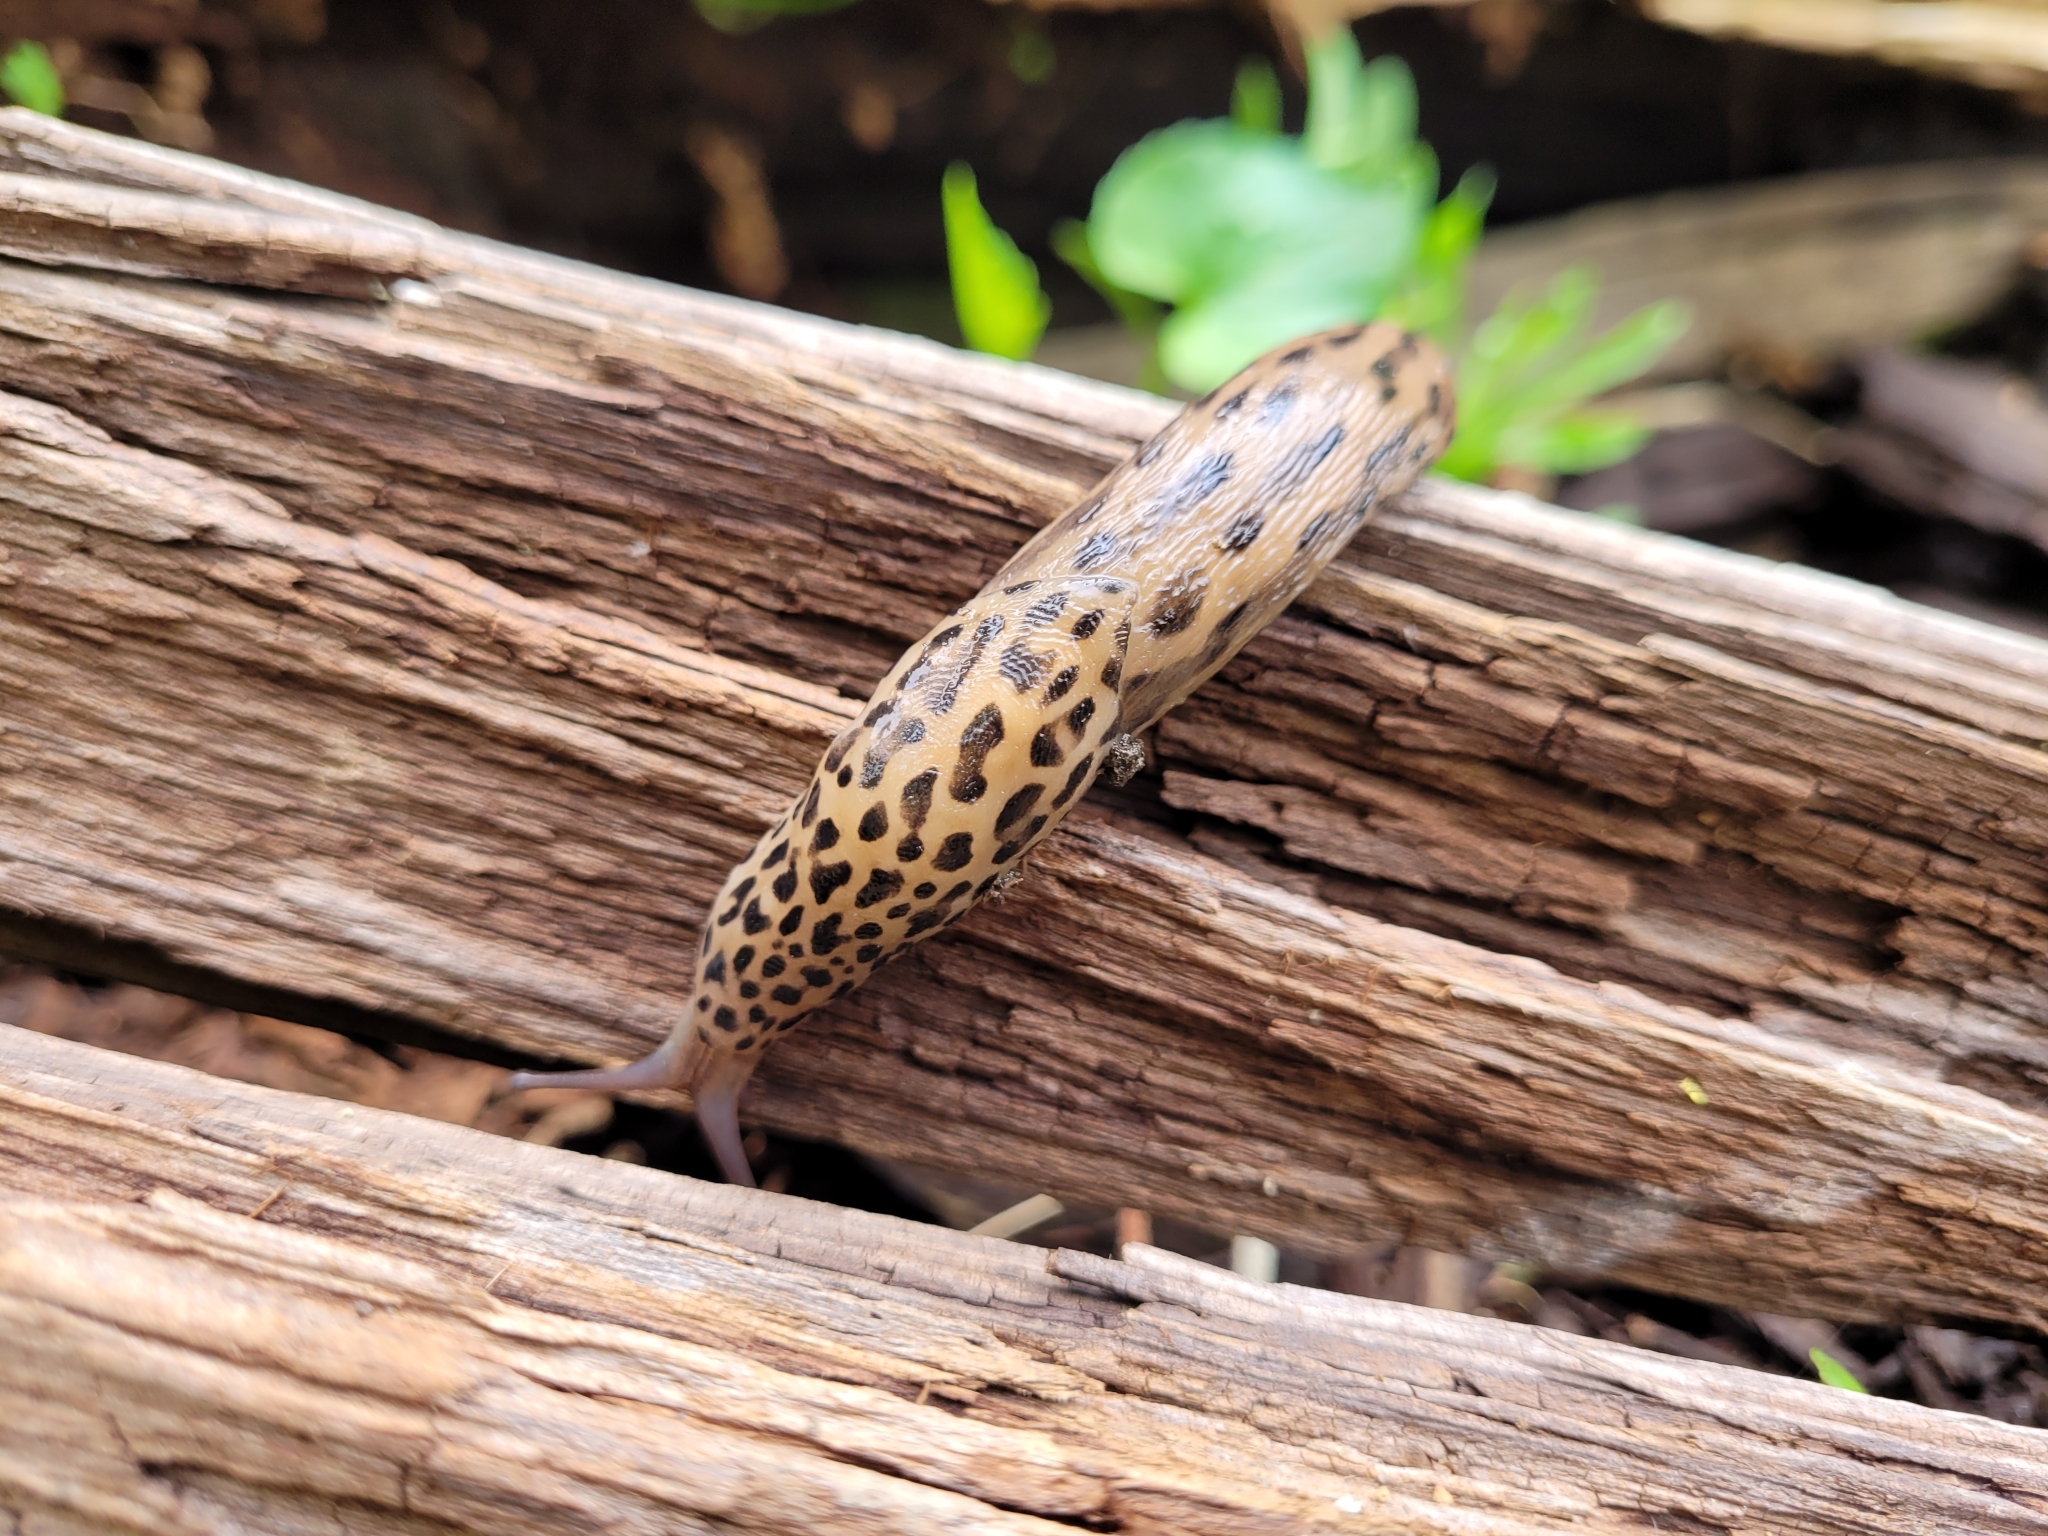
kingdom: Animalia
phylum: Mollusca
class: Gastropoda
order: Stylommatophora
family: Limacidae
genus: Limax
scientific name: Limax maximus
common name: Great grey slug
